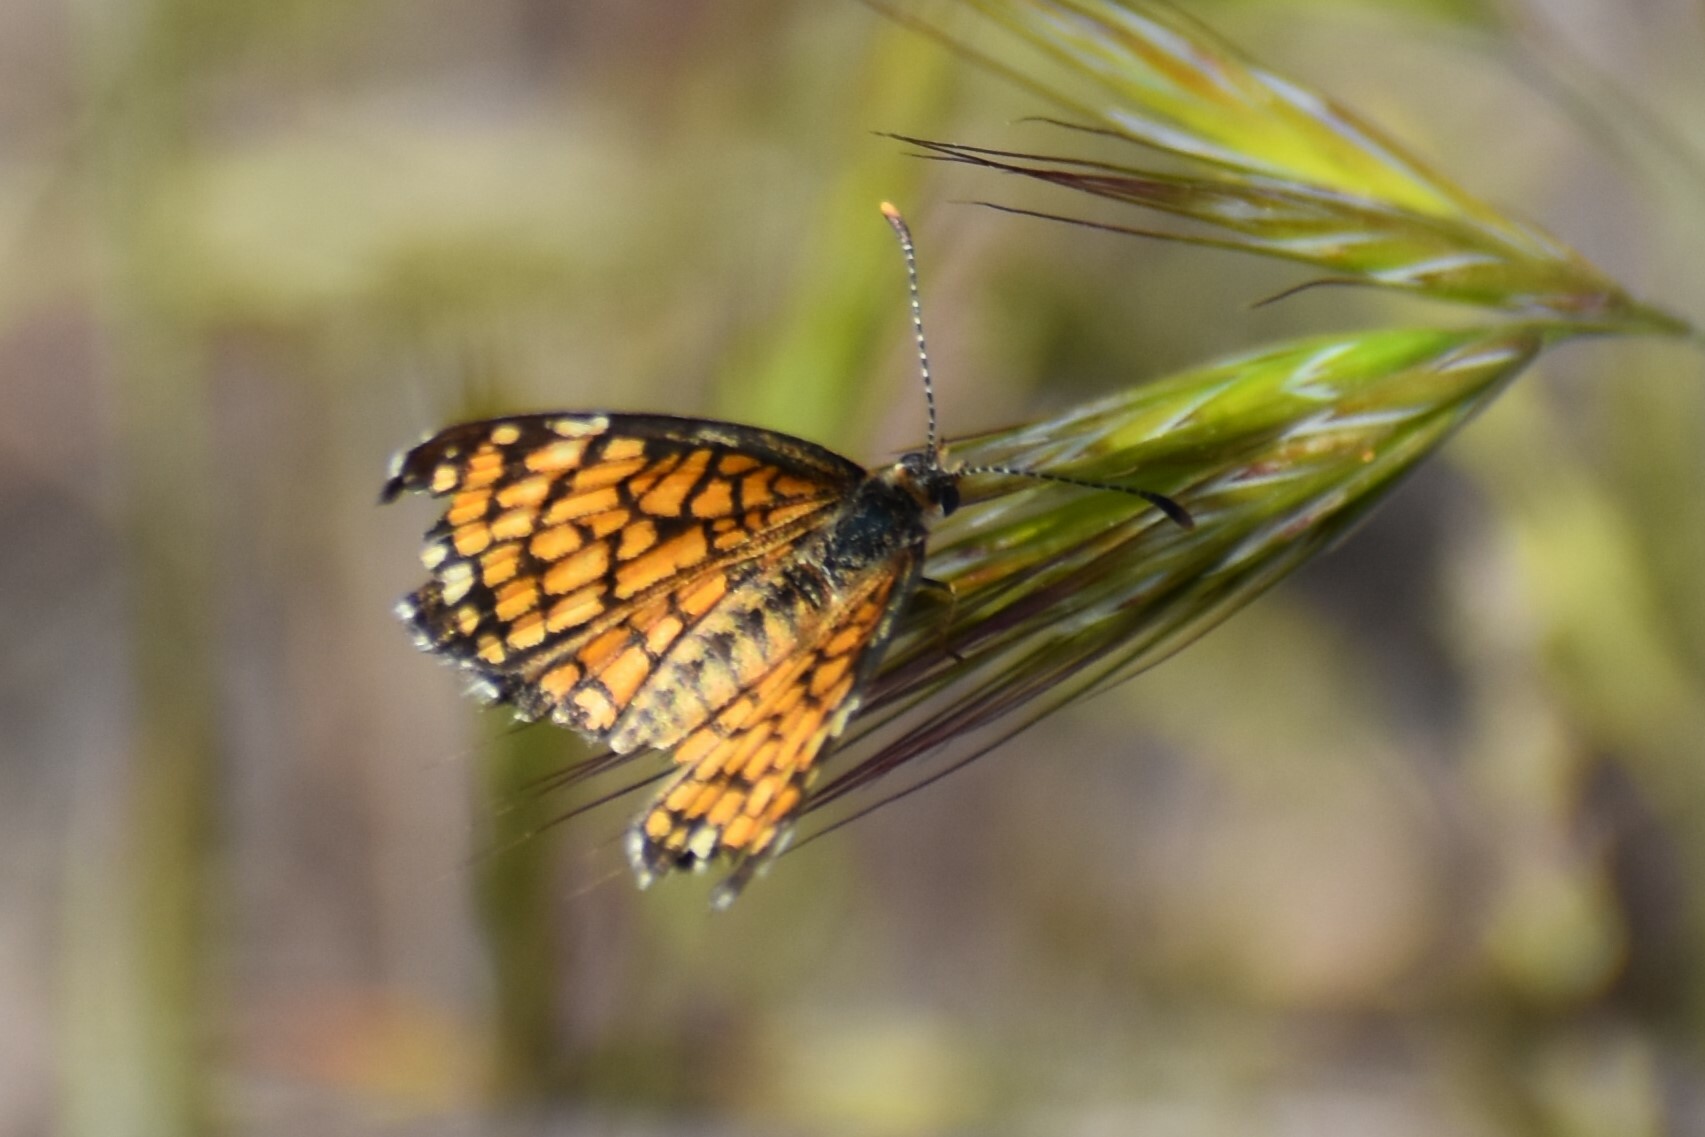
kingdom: Animalia
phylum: Arthropoda
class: Insecta
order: Lepidoptera
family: Nymphalidae
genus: Texola
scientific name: Texola
